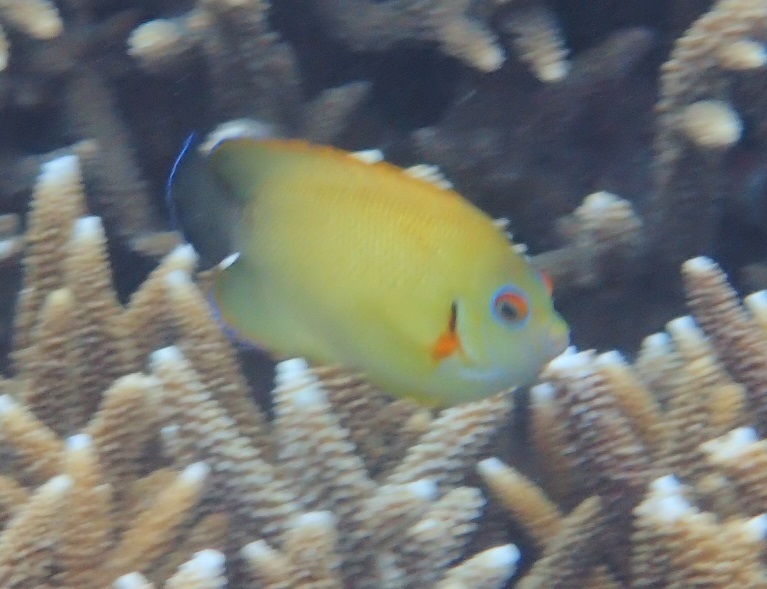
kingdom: Animalia
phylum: Chordata
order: Perciformes
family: Pomacanthidae
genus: Centropyge
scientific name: Centropyge vrolikii
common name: Pearlscale angelfish
